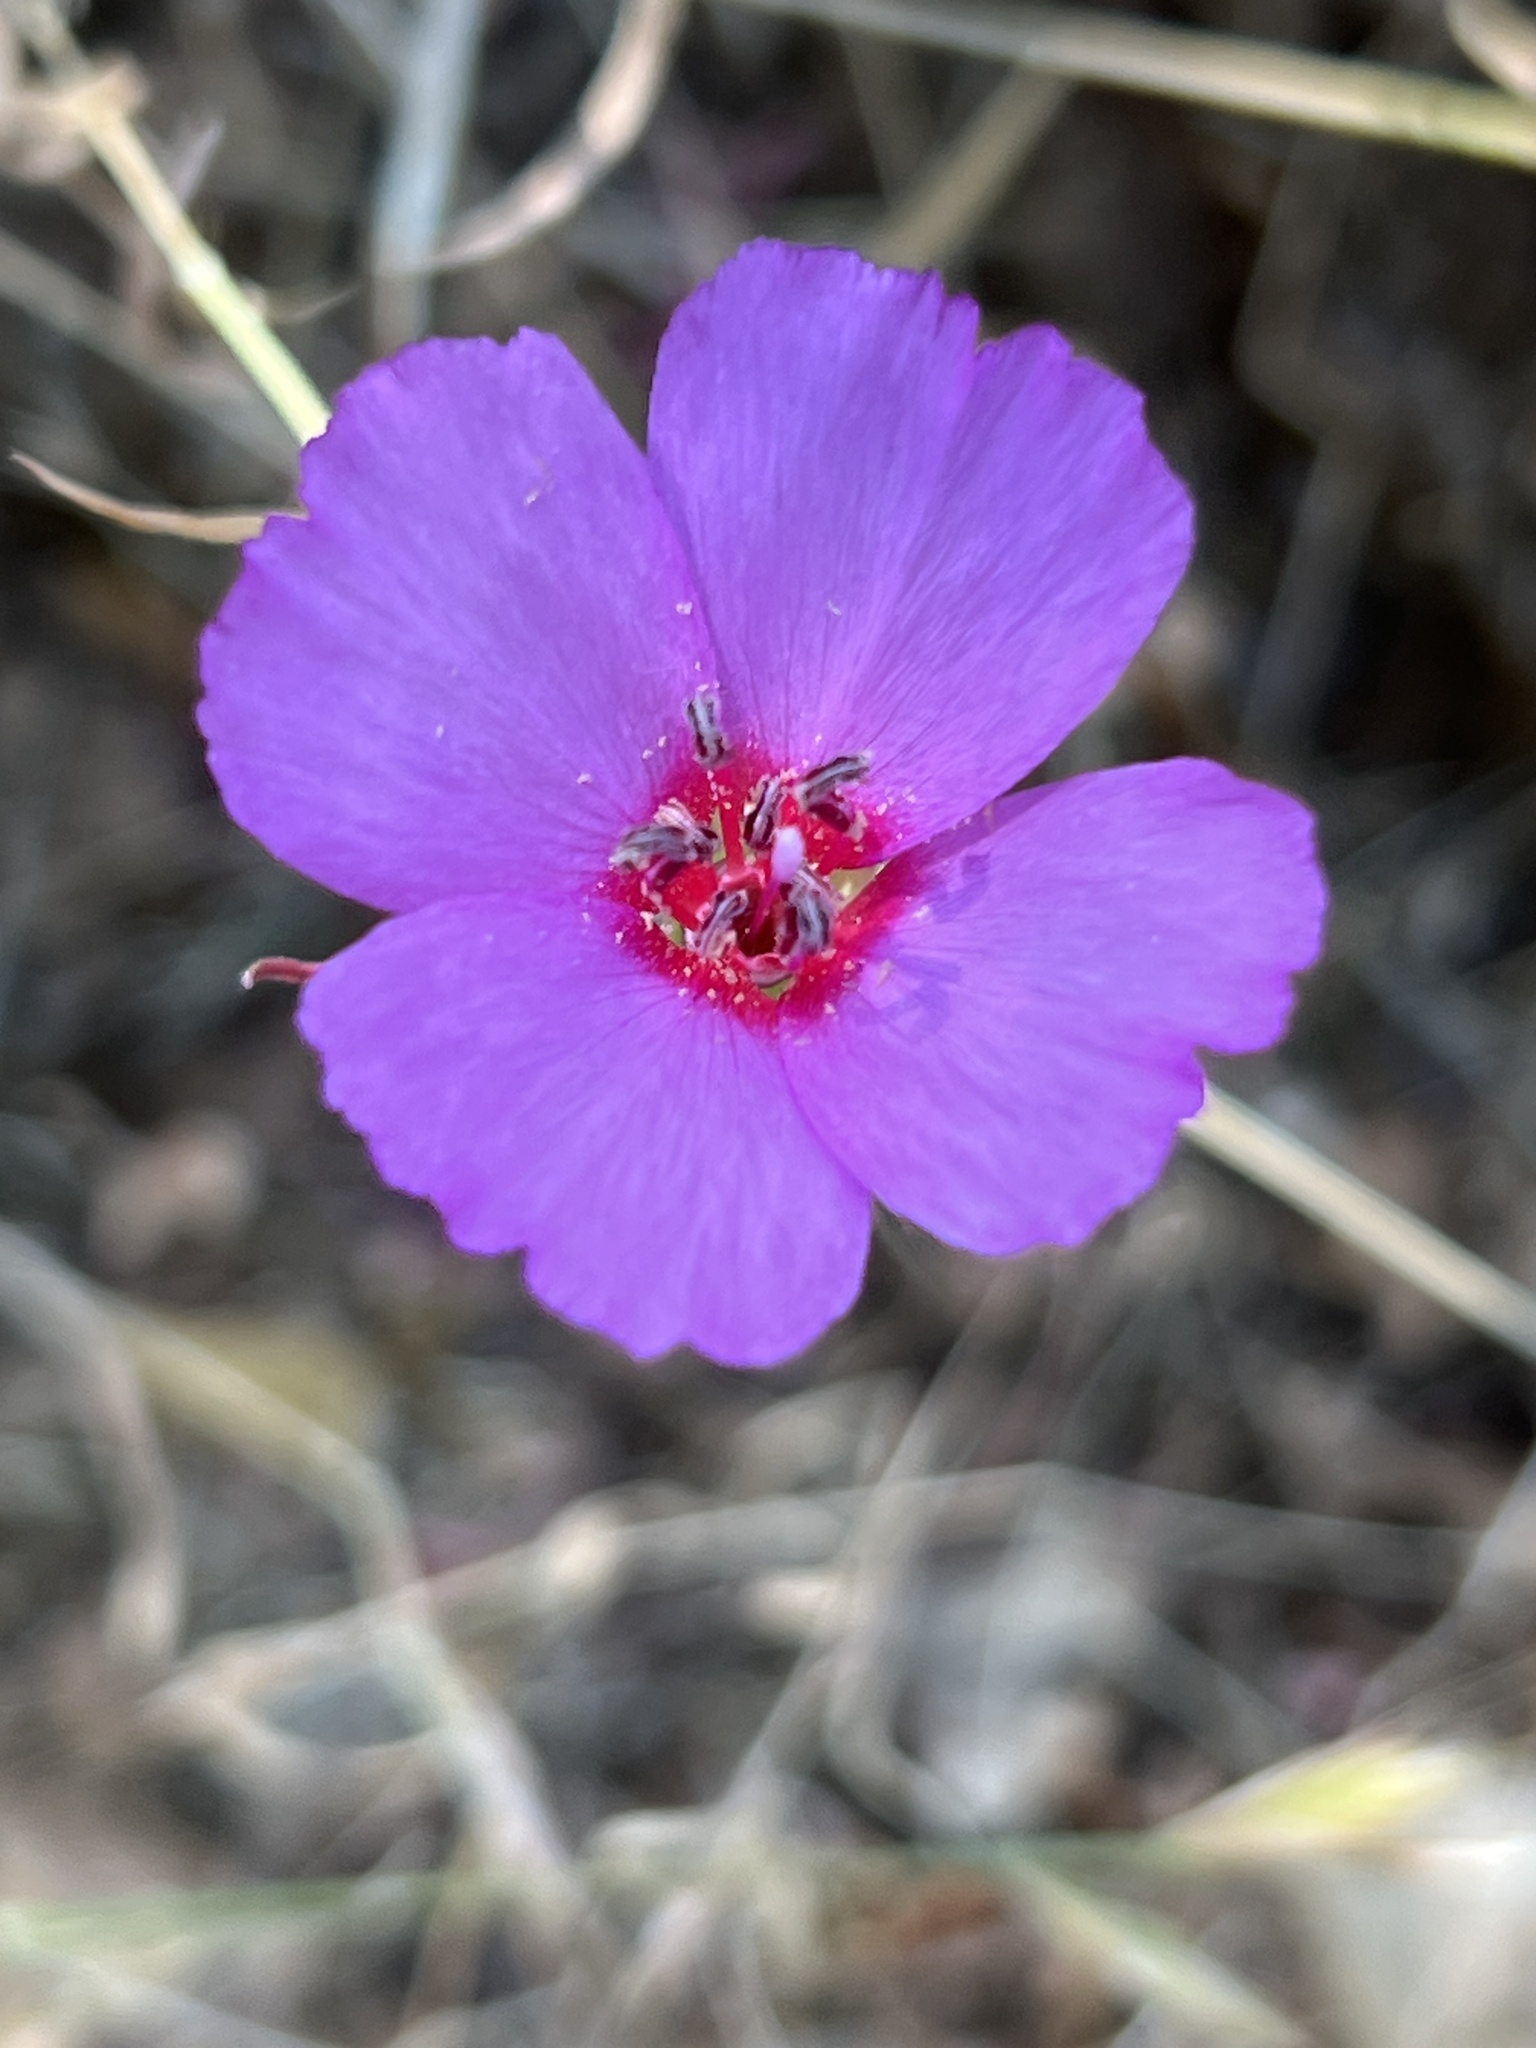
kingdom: Plantae
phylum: Tracheophyta
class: Magnoliopsida
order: Myrtales
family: Onagraceae
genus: Clarkia
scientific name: Clarkia rubicunda
